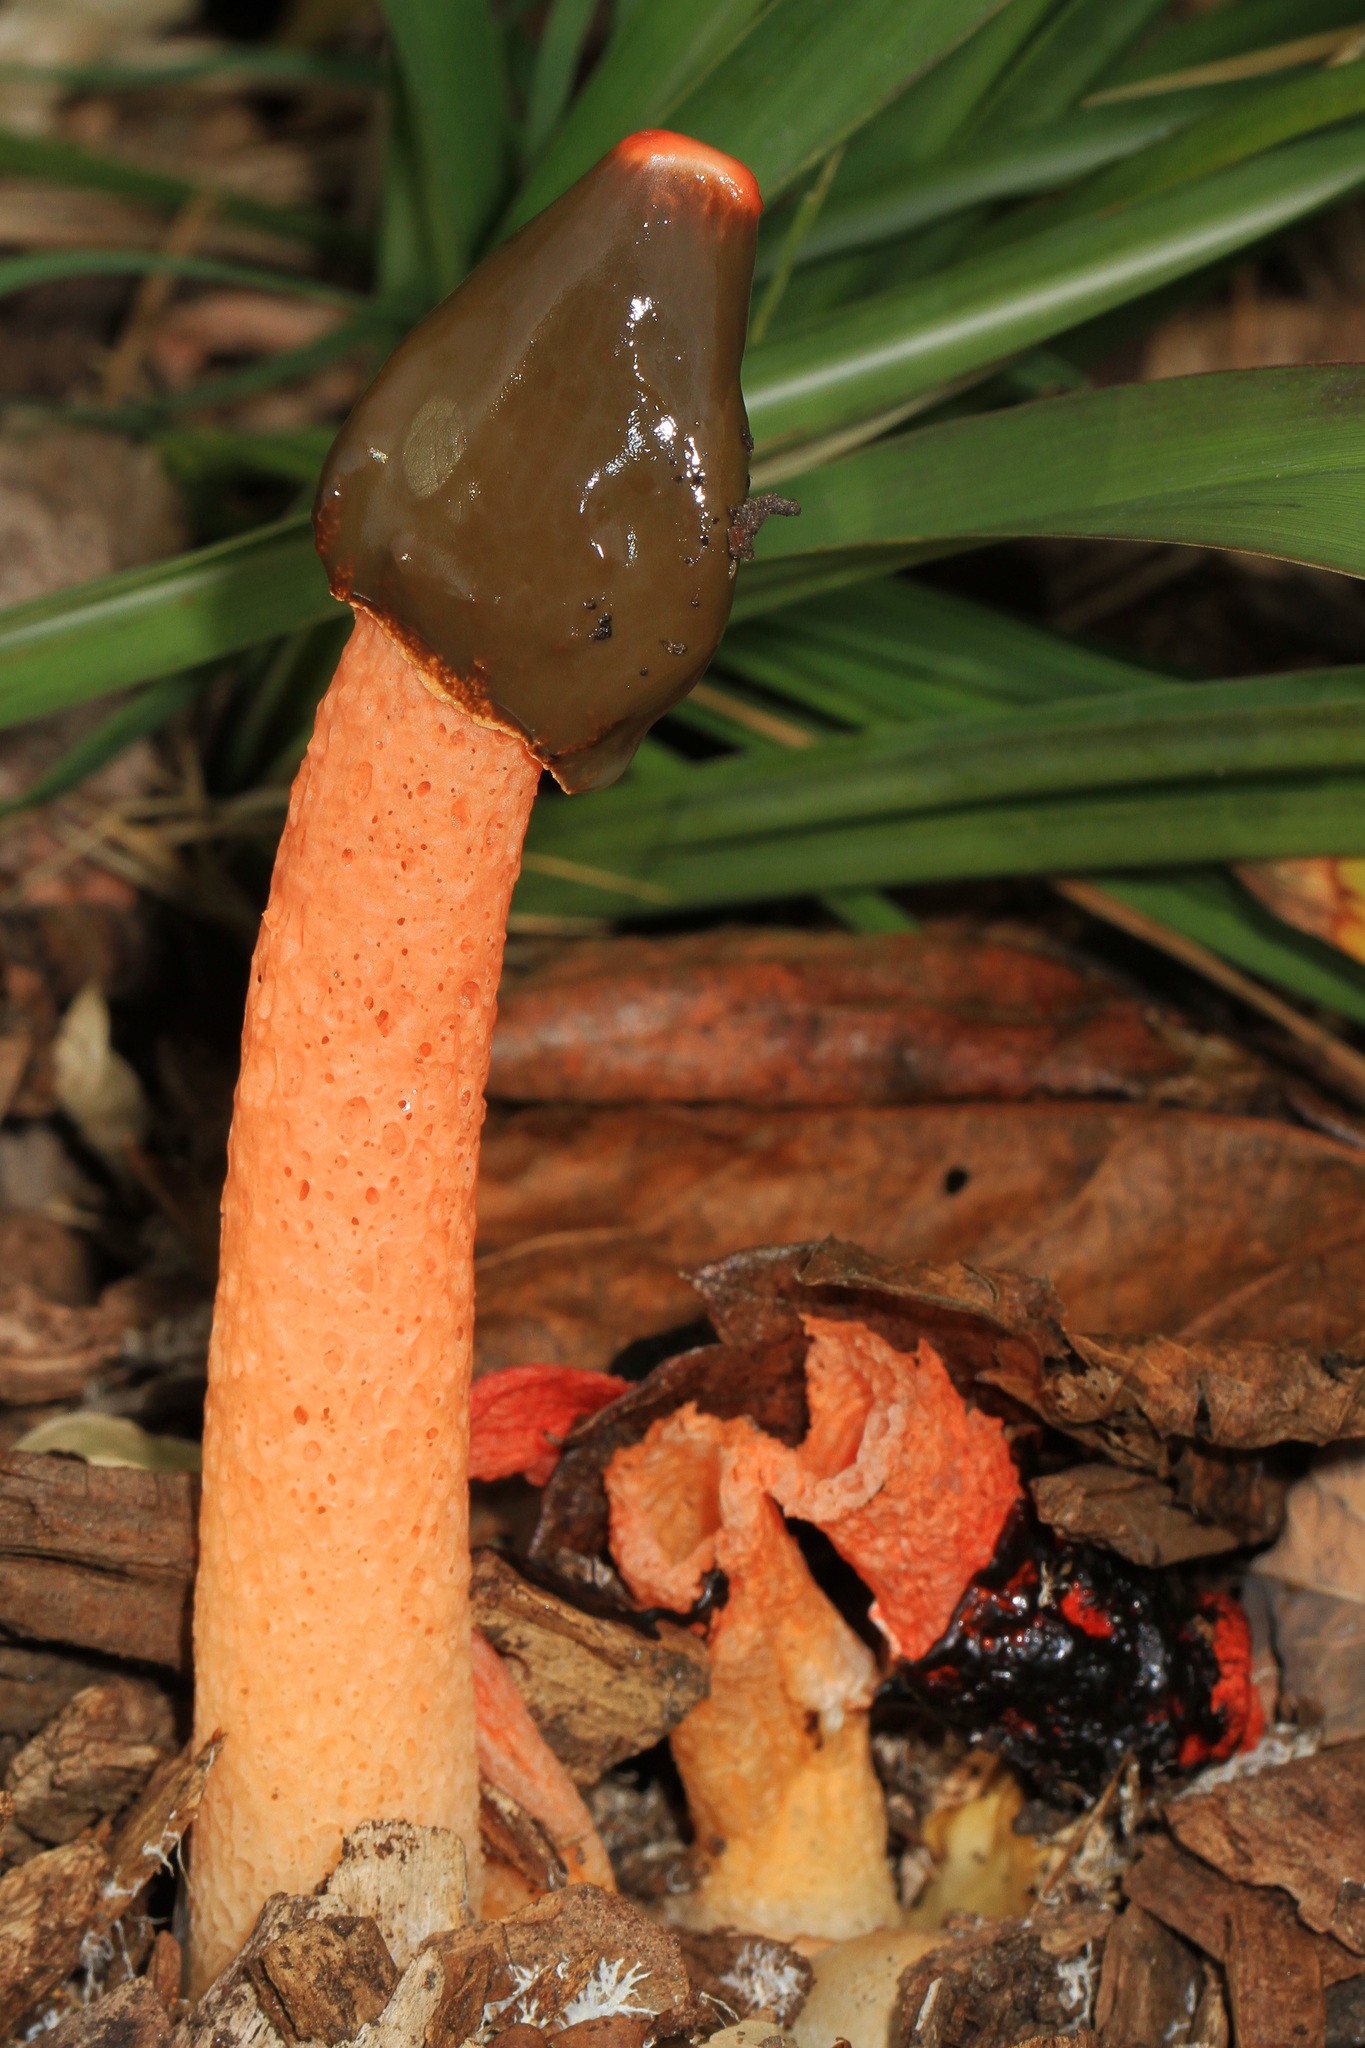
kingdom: Fungi
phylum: Basidiomycota
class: Agaricomycetes
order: Phallales
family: Phallaceae
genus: Phallus
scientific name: Phallus rugulosus
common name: Wrinkly stinkhorn
